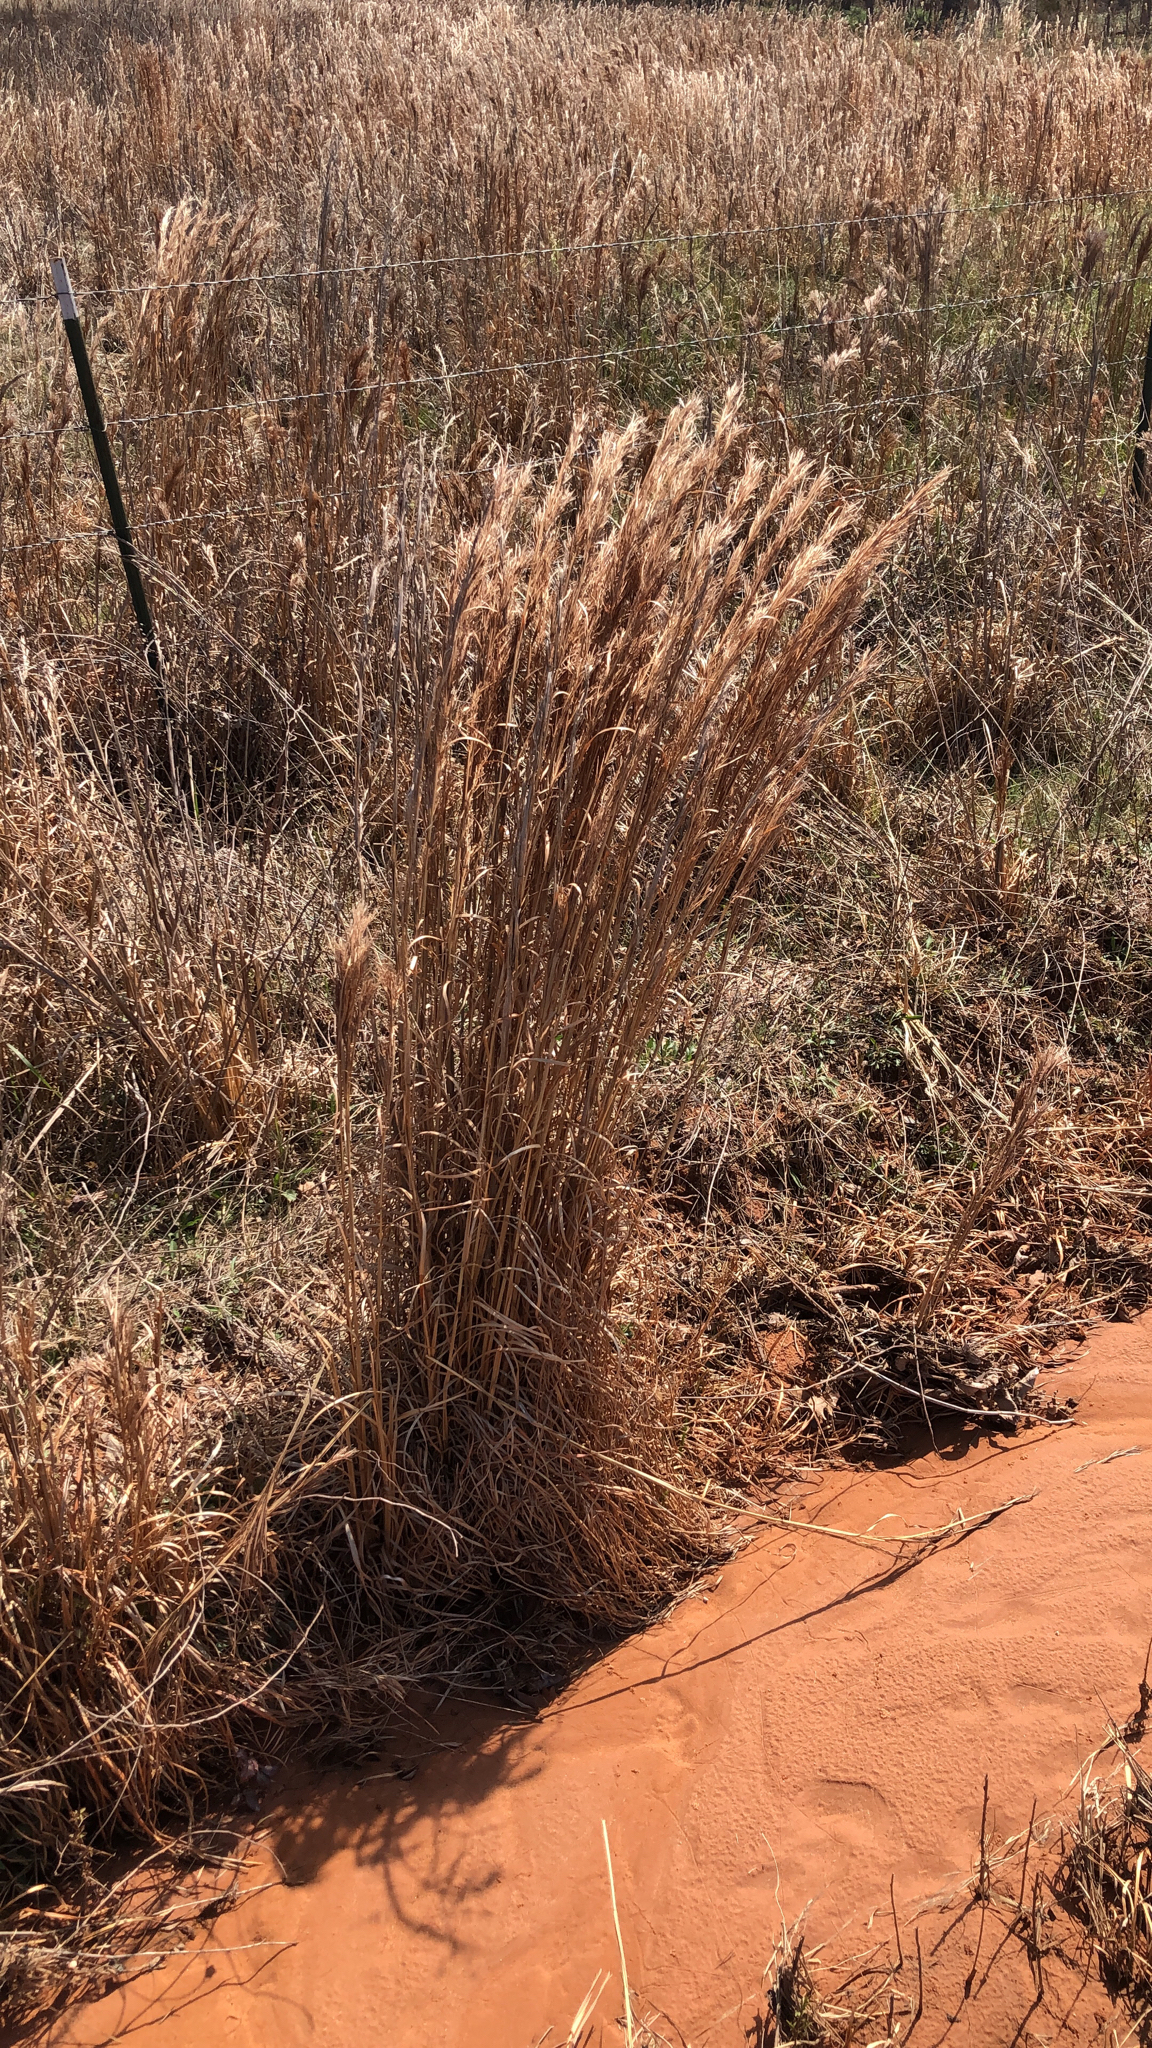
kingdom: Plantae
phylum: Tracheophyta
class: Liliopsida
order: Poales
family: Poaceae
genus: Andropogon
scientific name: Andropogon tenuispatheus
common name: Bushy bluestem
